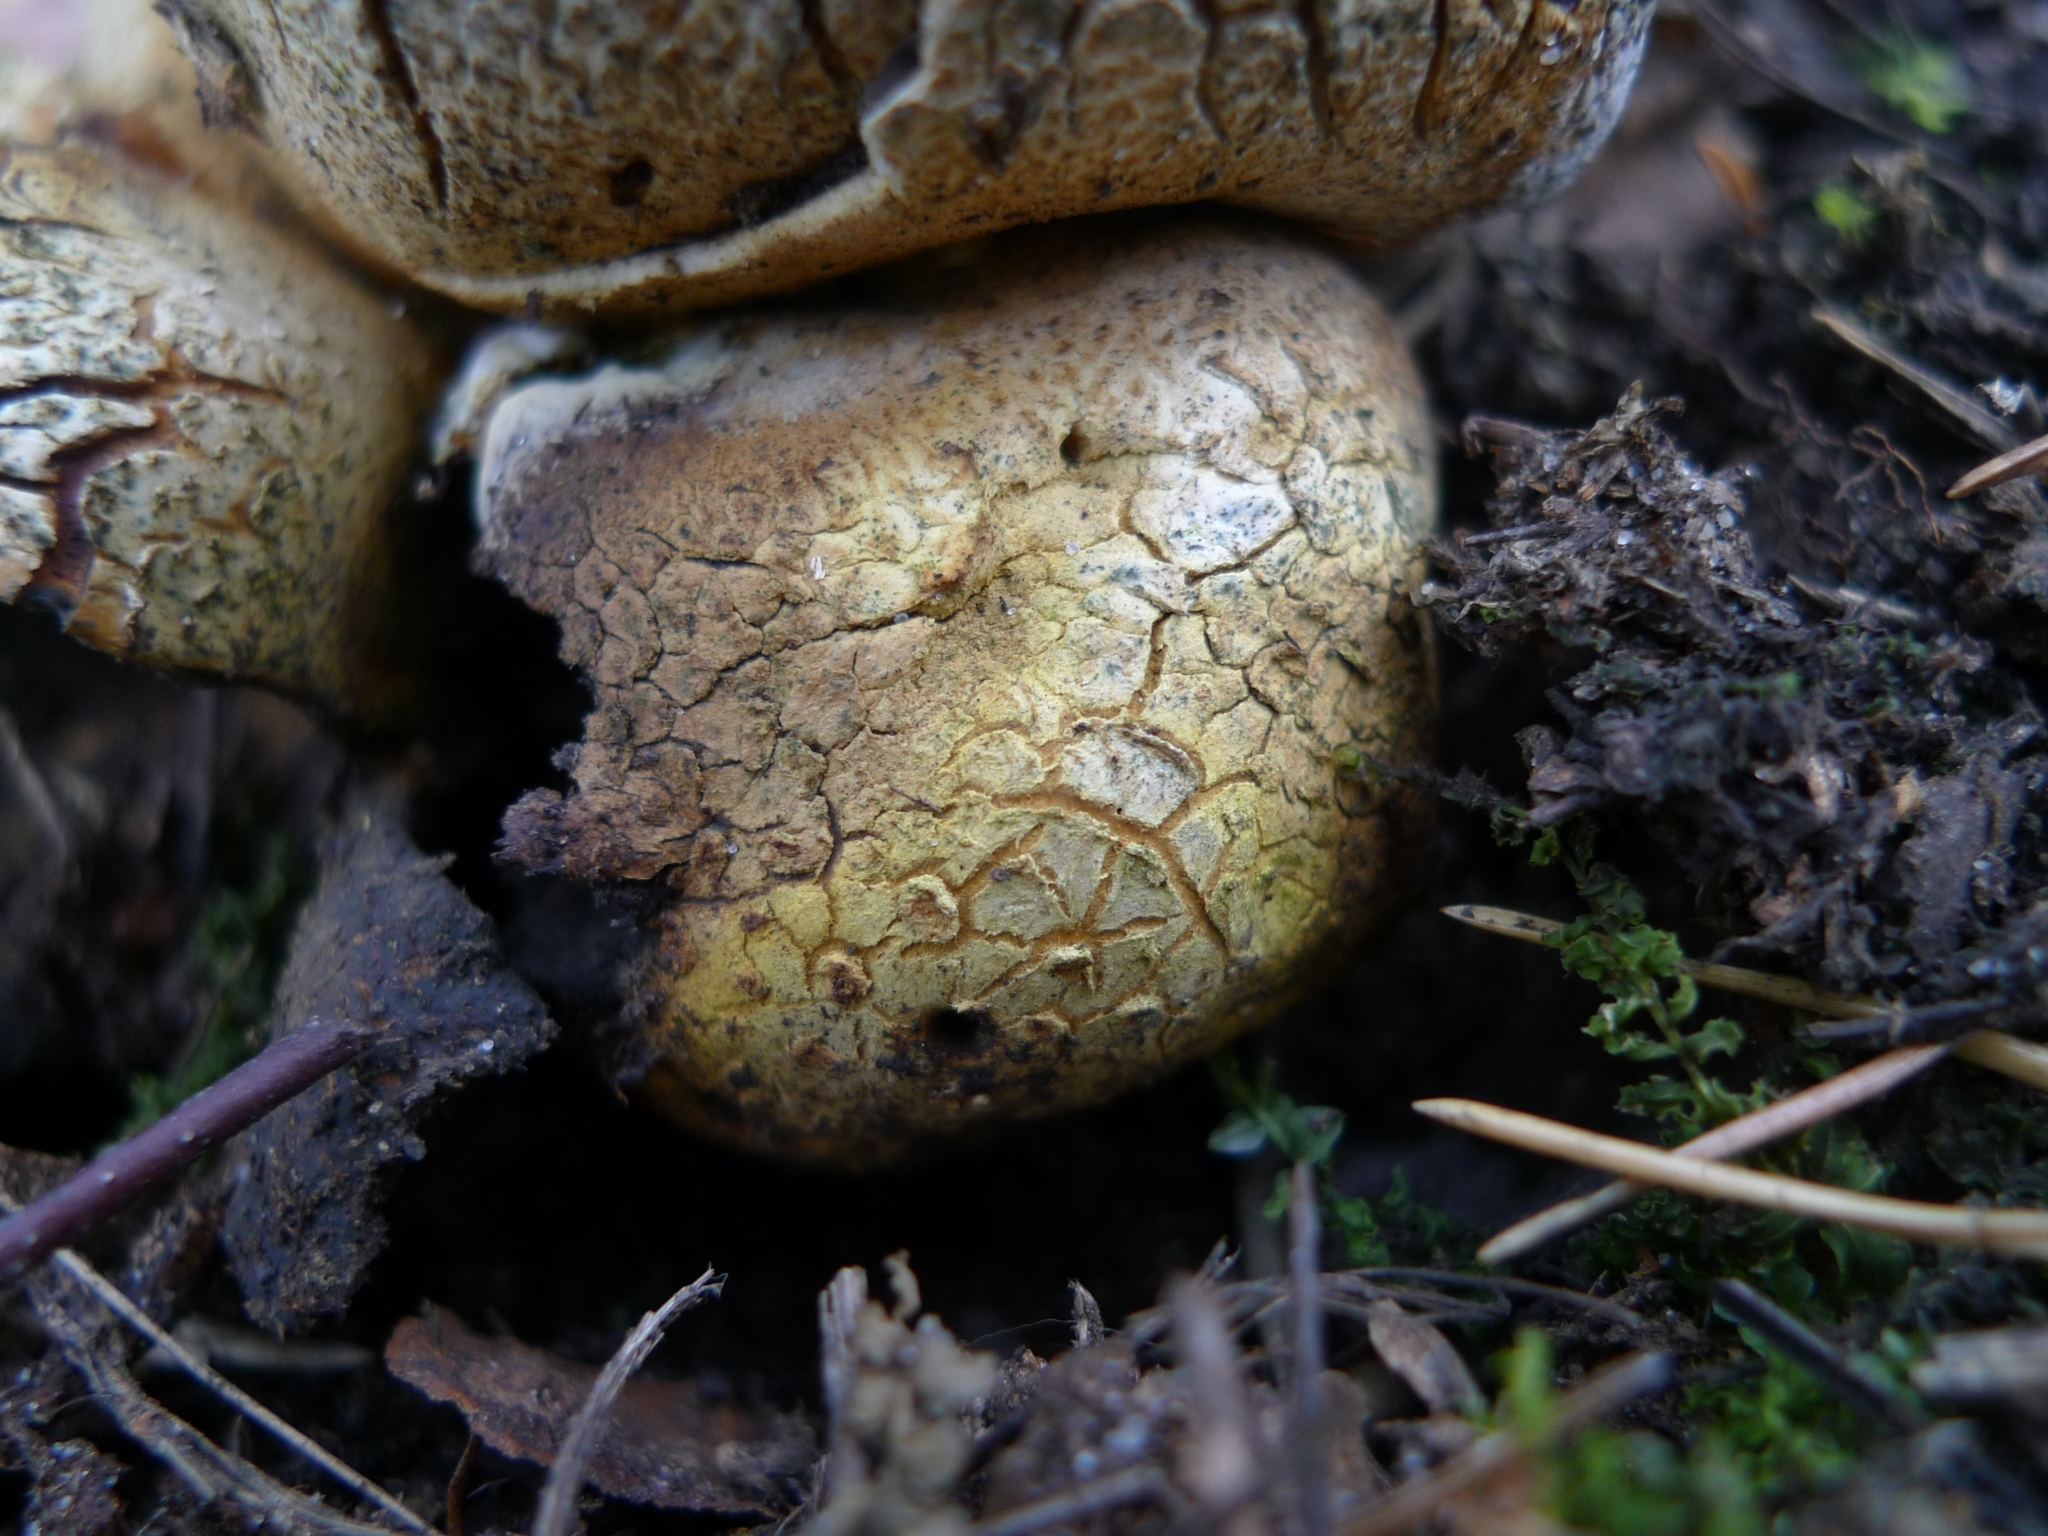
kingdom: Fungi
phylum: Basidiomycota
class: Agaricomycetes
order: Boletales
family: Sclerodermataceae
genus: Scleroderma
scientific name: Scleroderma citrinum
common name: Common earthball
